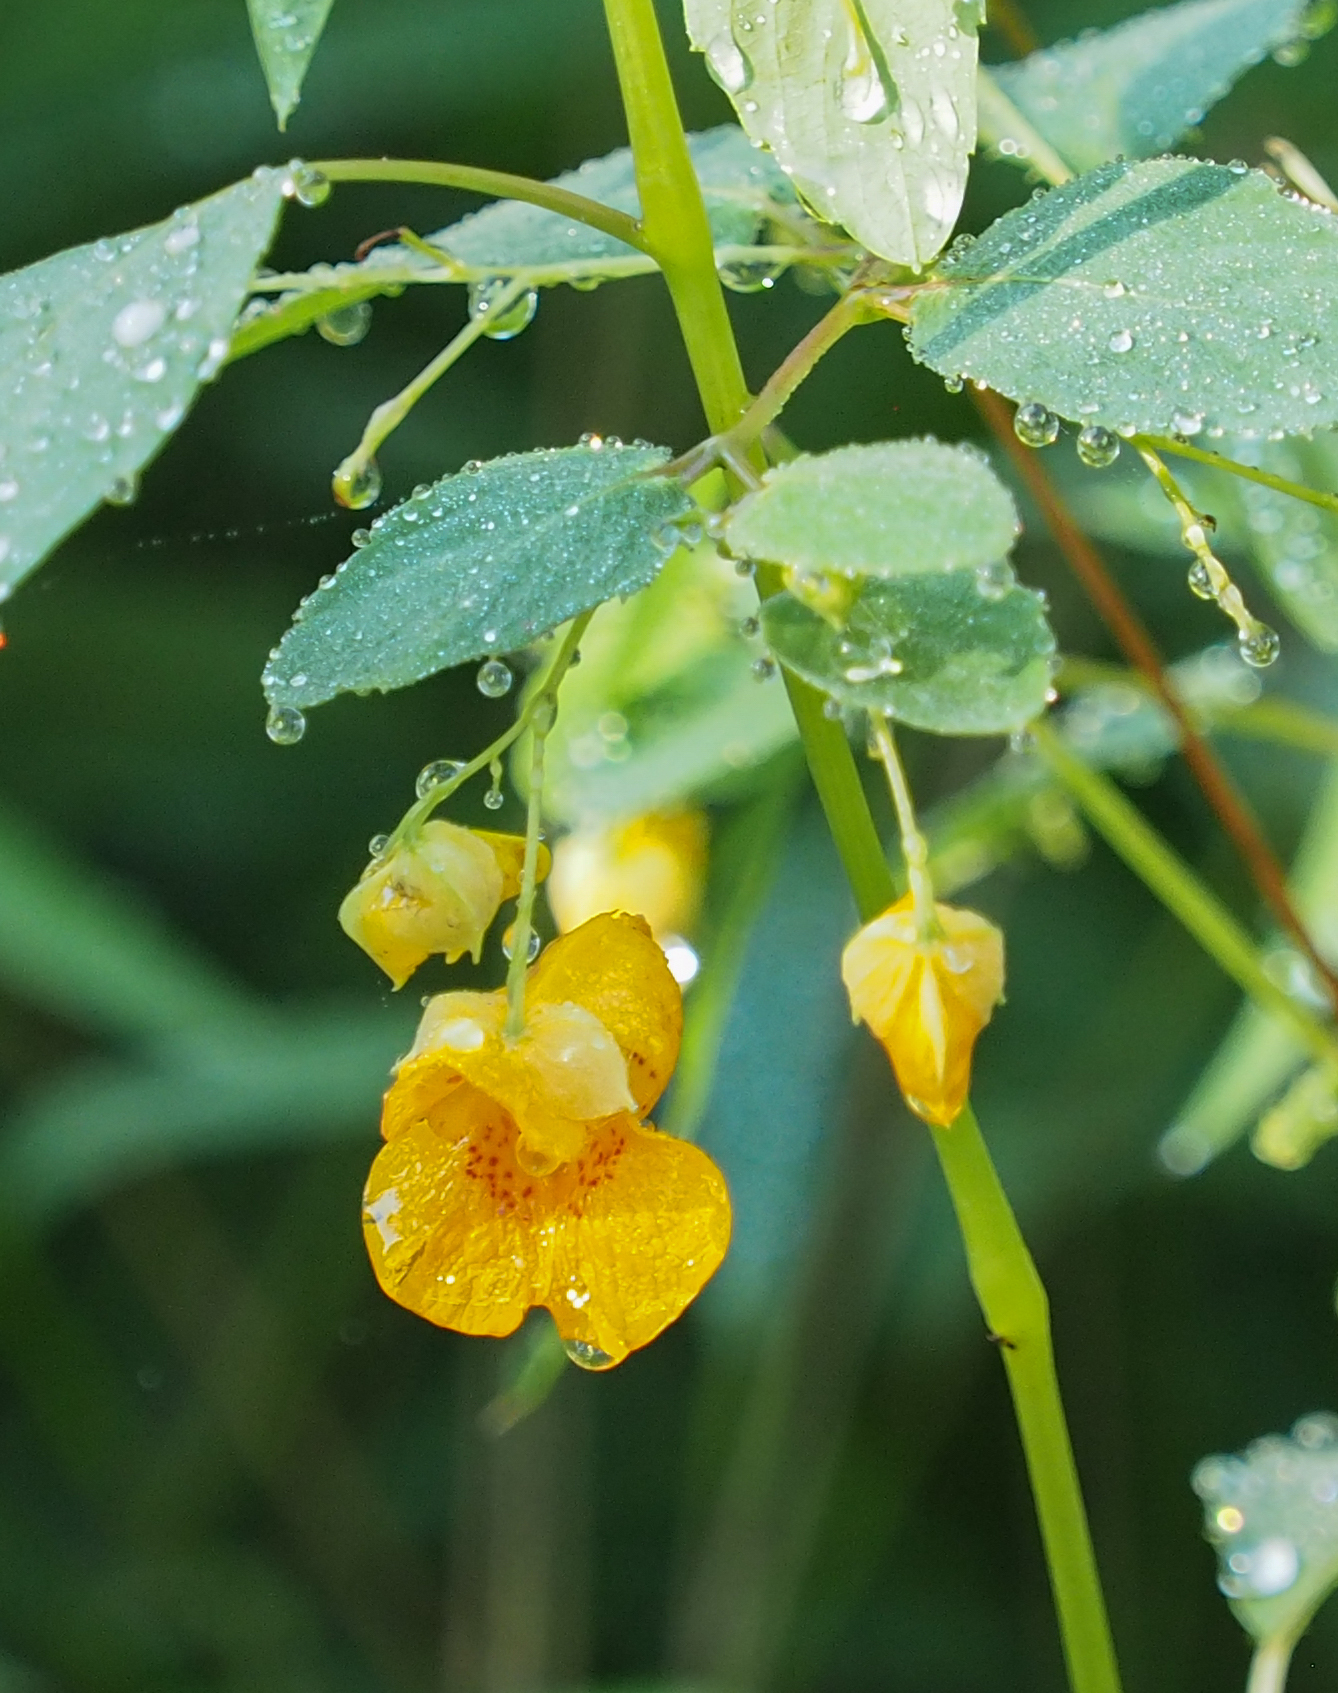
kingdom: Plantae
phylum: Tracheophyta
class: Magnoliopsida
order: Ericales
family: Balsaminaceae
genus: Impatiens
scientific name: Impatiens capensis
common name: Orange balsam
